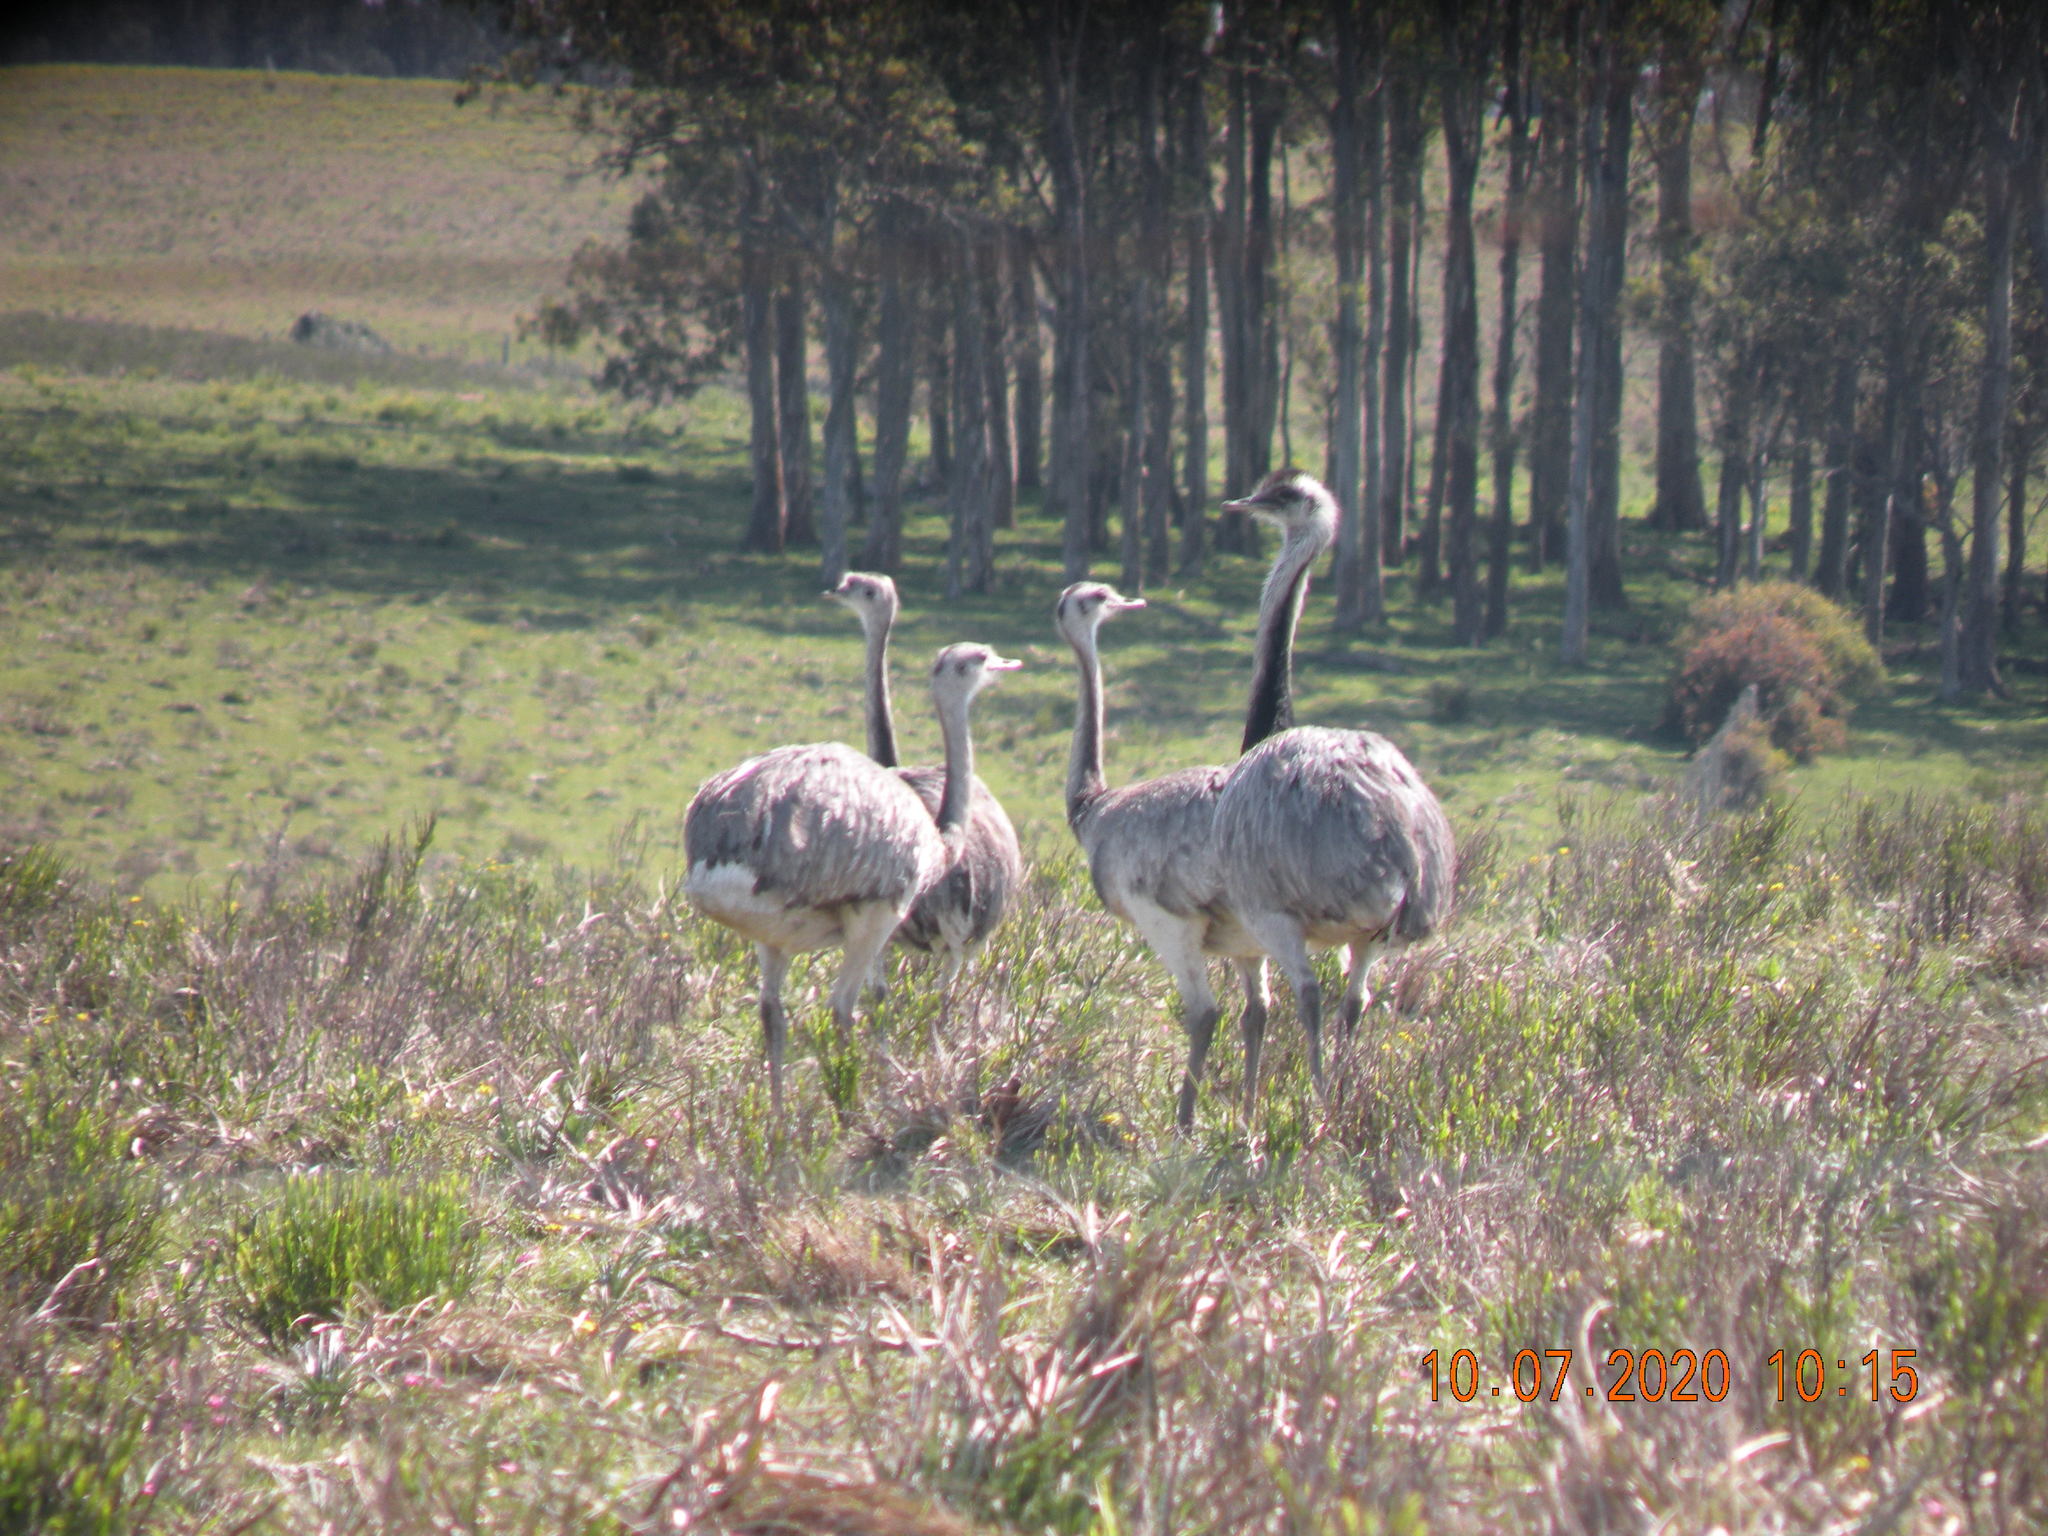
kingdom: Animalia
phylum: Chordata
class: Aves
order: Rheiformes
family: Rheidae
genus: Rhea
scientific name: Rhea americana
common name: Greater rhea
